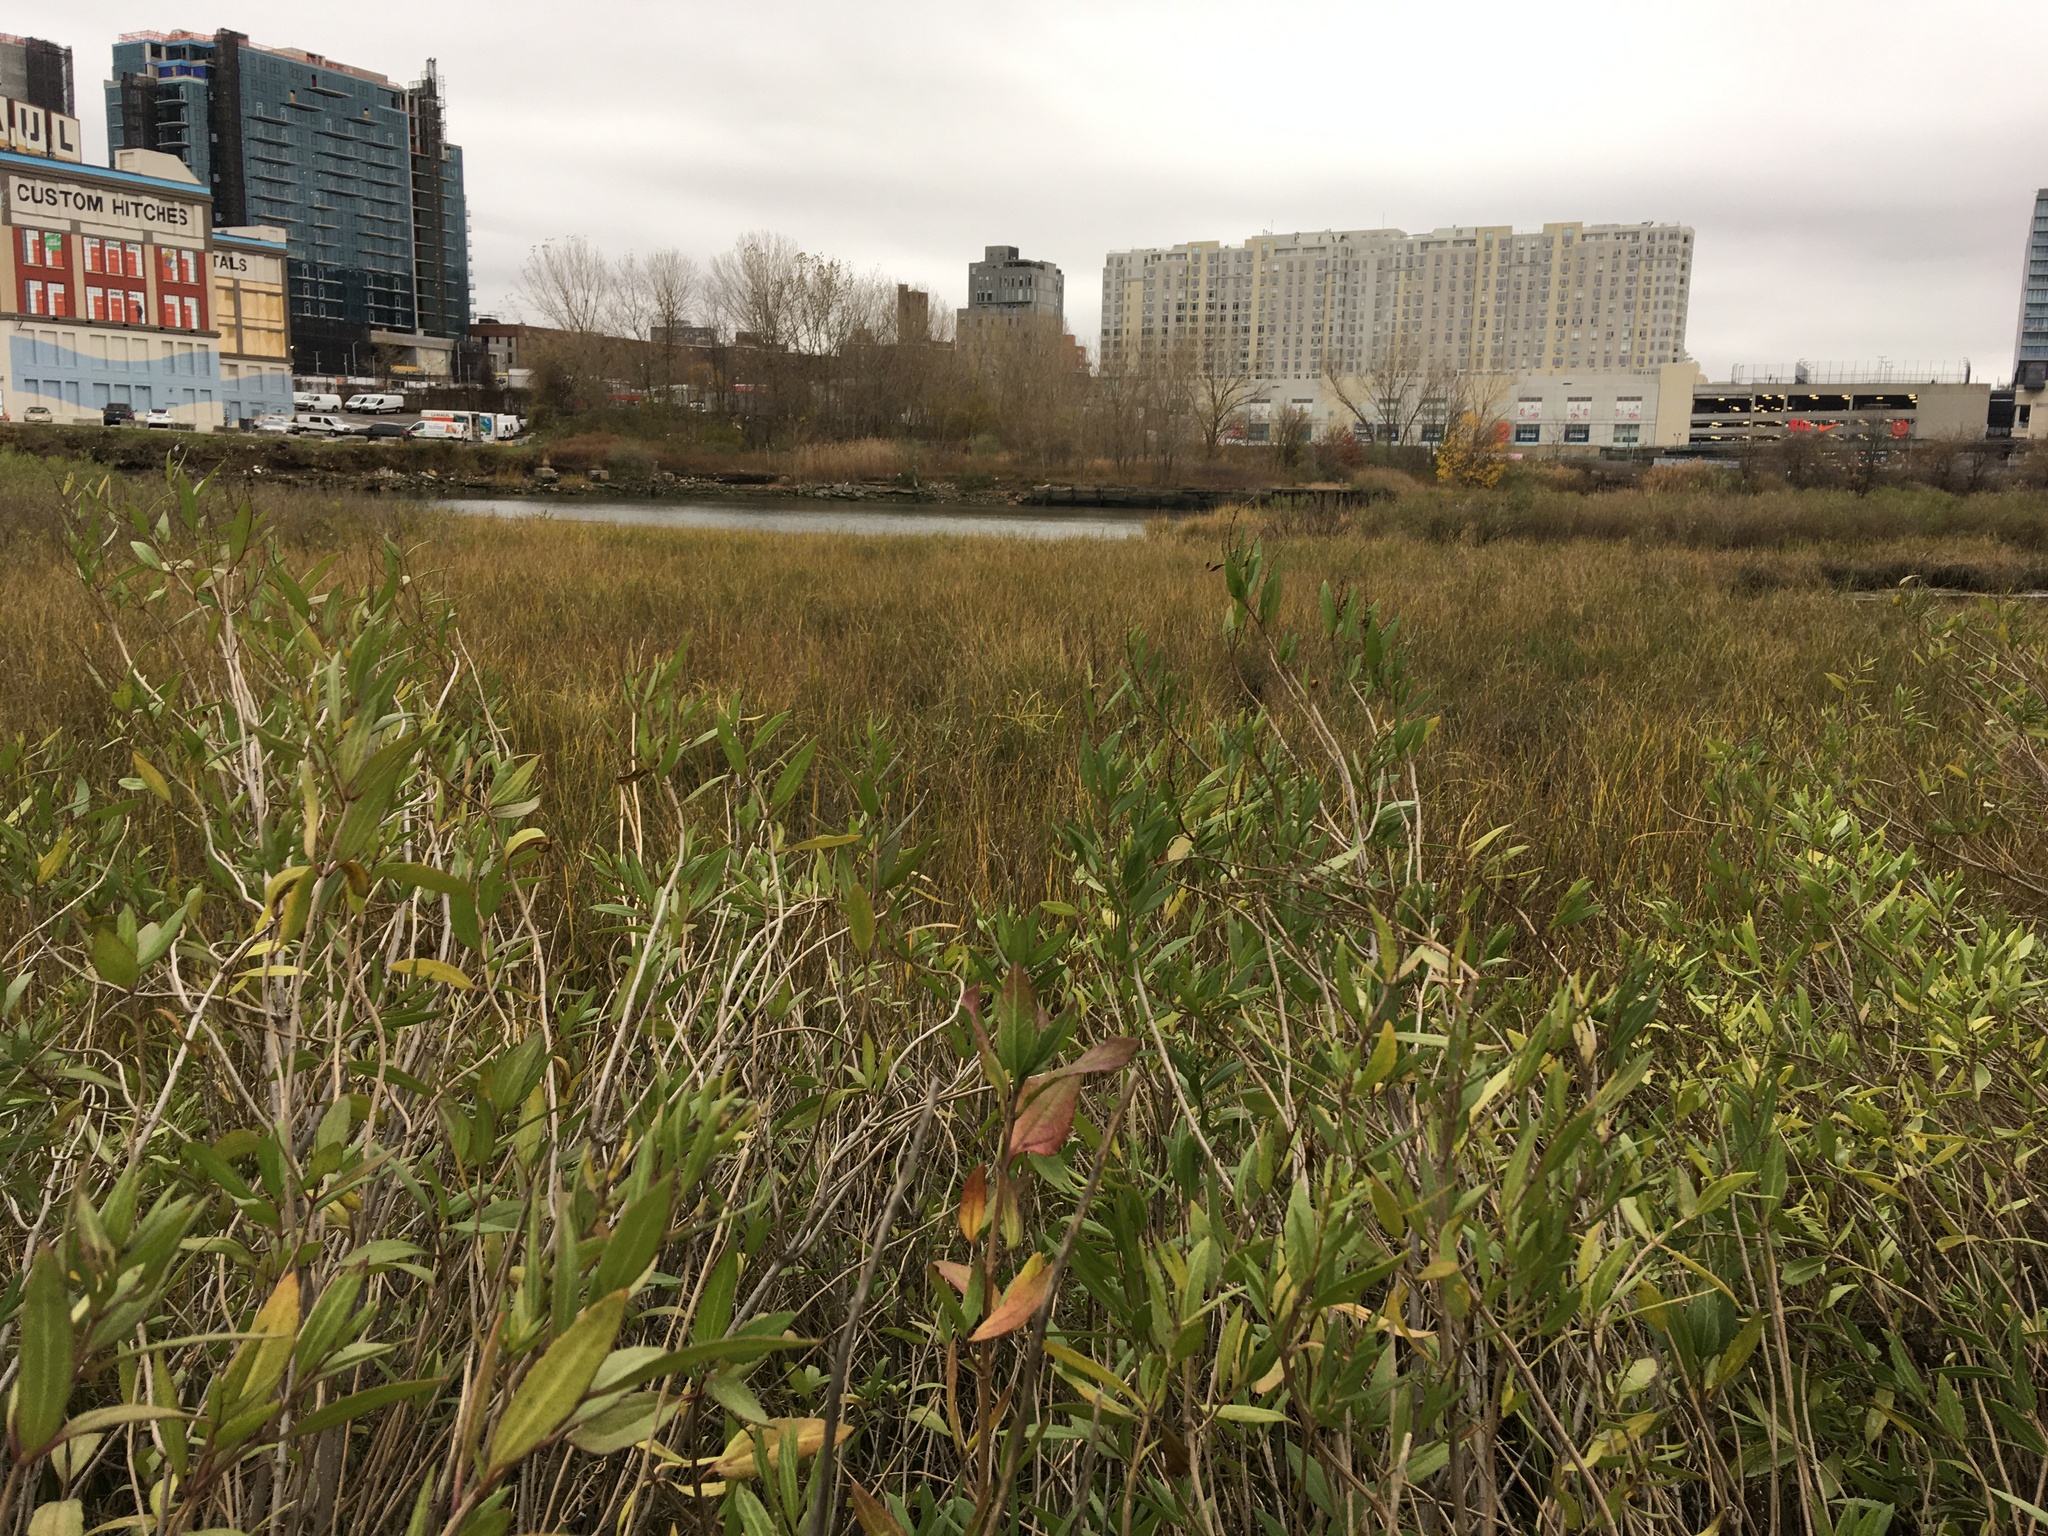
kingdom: Plantae
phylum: Tracheophyta
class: Magnoliopsida
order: Asterales
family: Asteraceae
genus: Iva
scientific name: Iva frutescens
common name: Big-leaved marsh-elder
